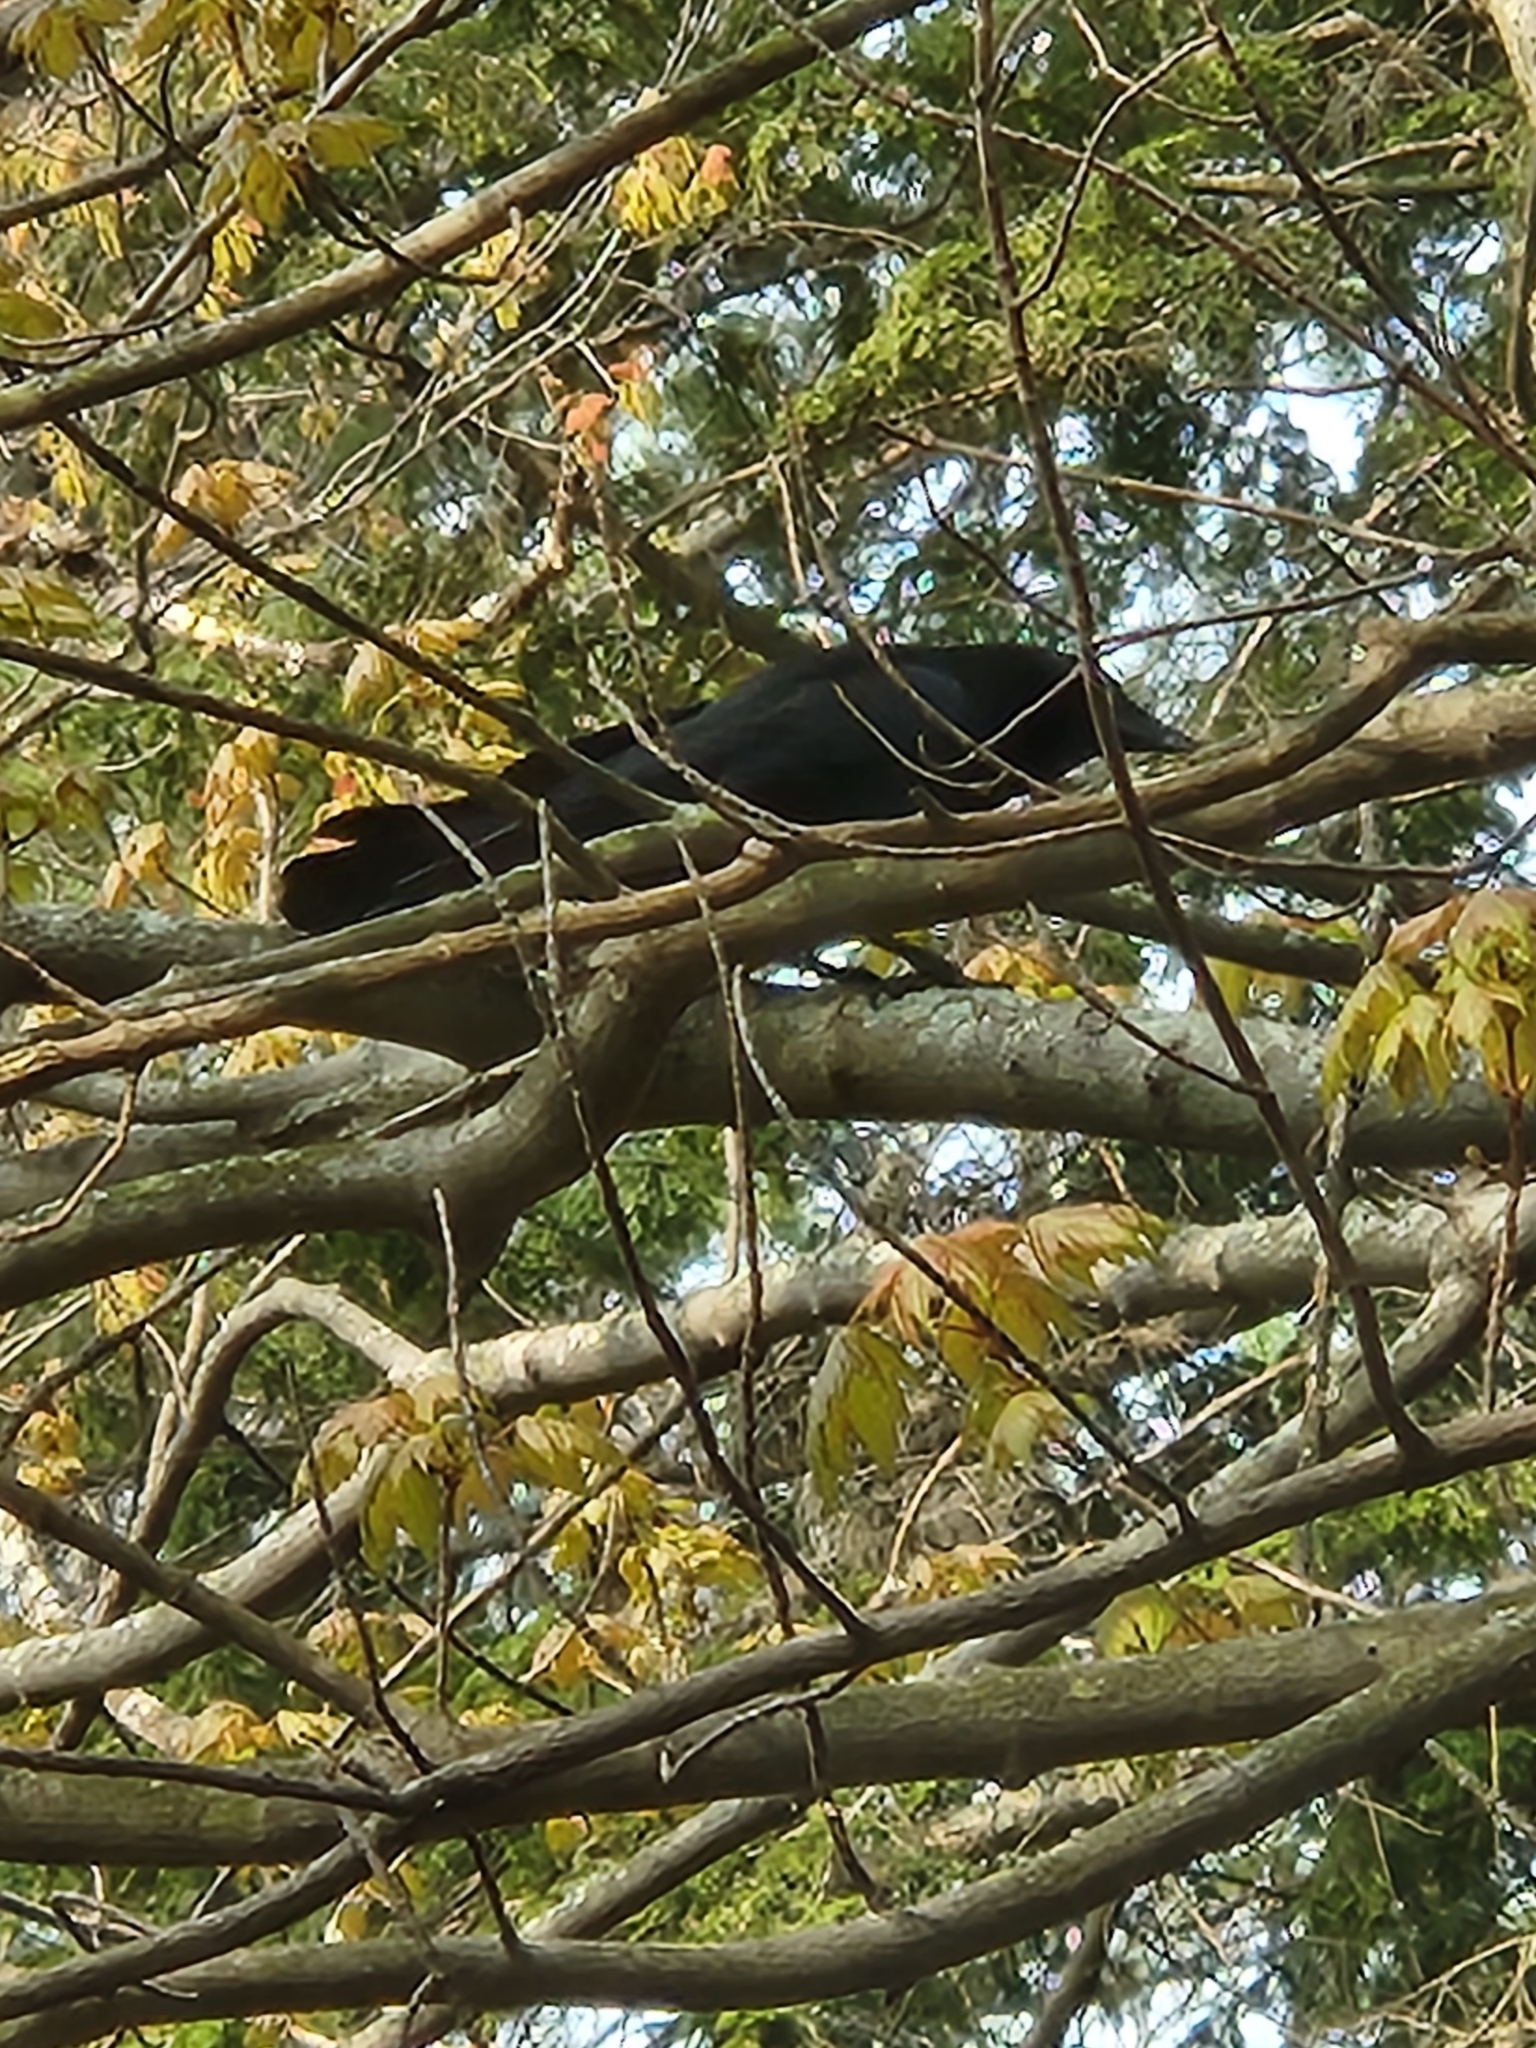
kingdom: Animalia
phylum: Chordata
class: Aves
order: Passeriformes
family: Corvidae
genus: Corvus
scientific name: Corvus brachyrhynchos
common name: American crow
